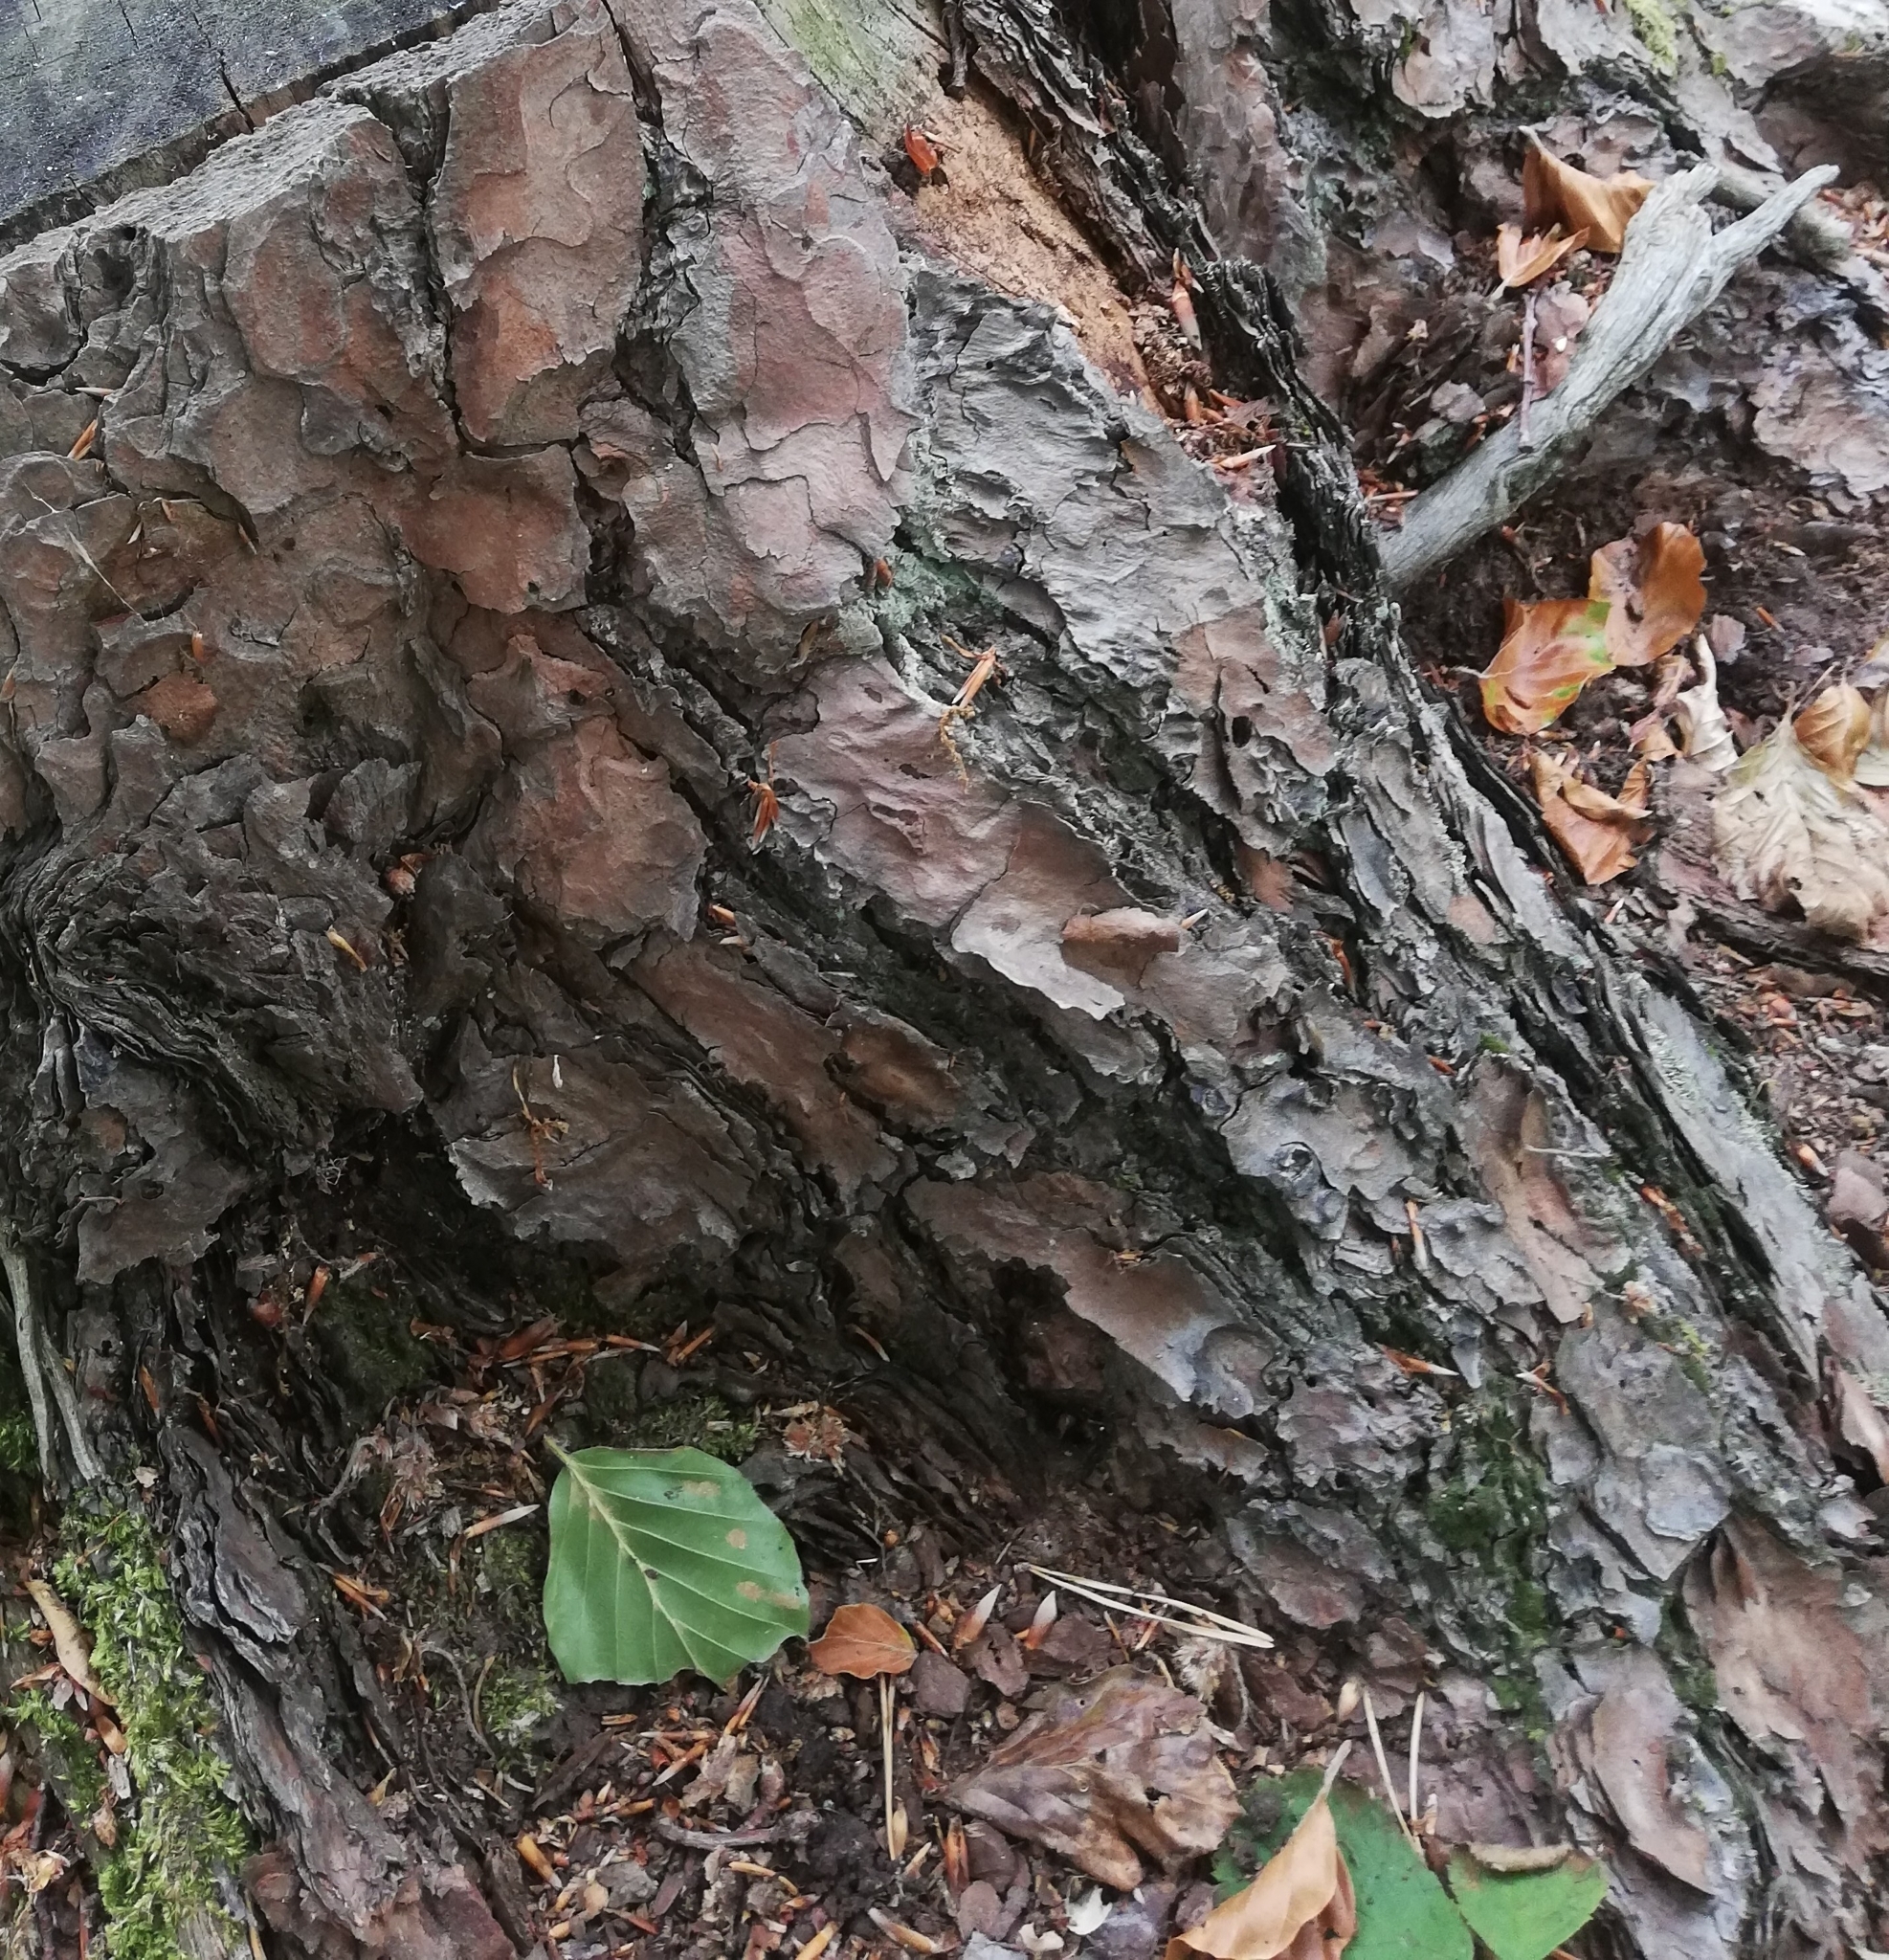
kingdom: Fungi
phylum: Basidiomycota
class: Agaricomycetes
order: Polyporales
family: Sparassidaceae
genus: Sparassis
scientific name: Sparassis crispa
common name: Brain fungus
